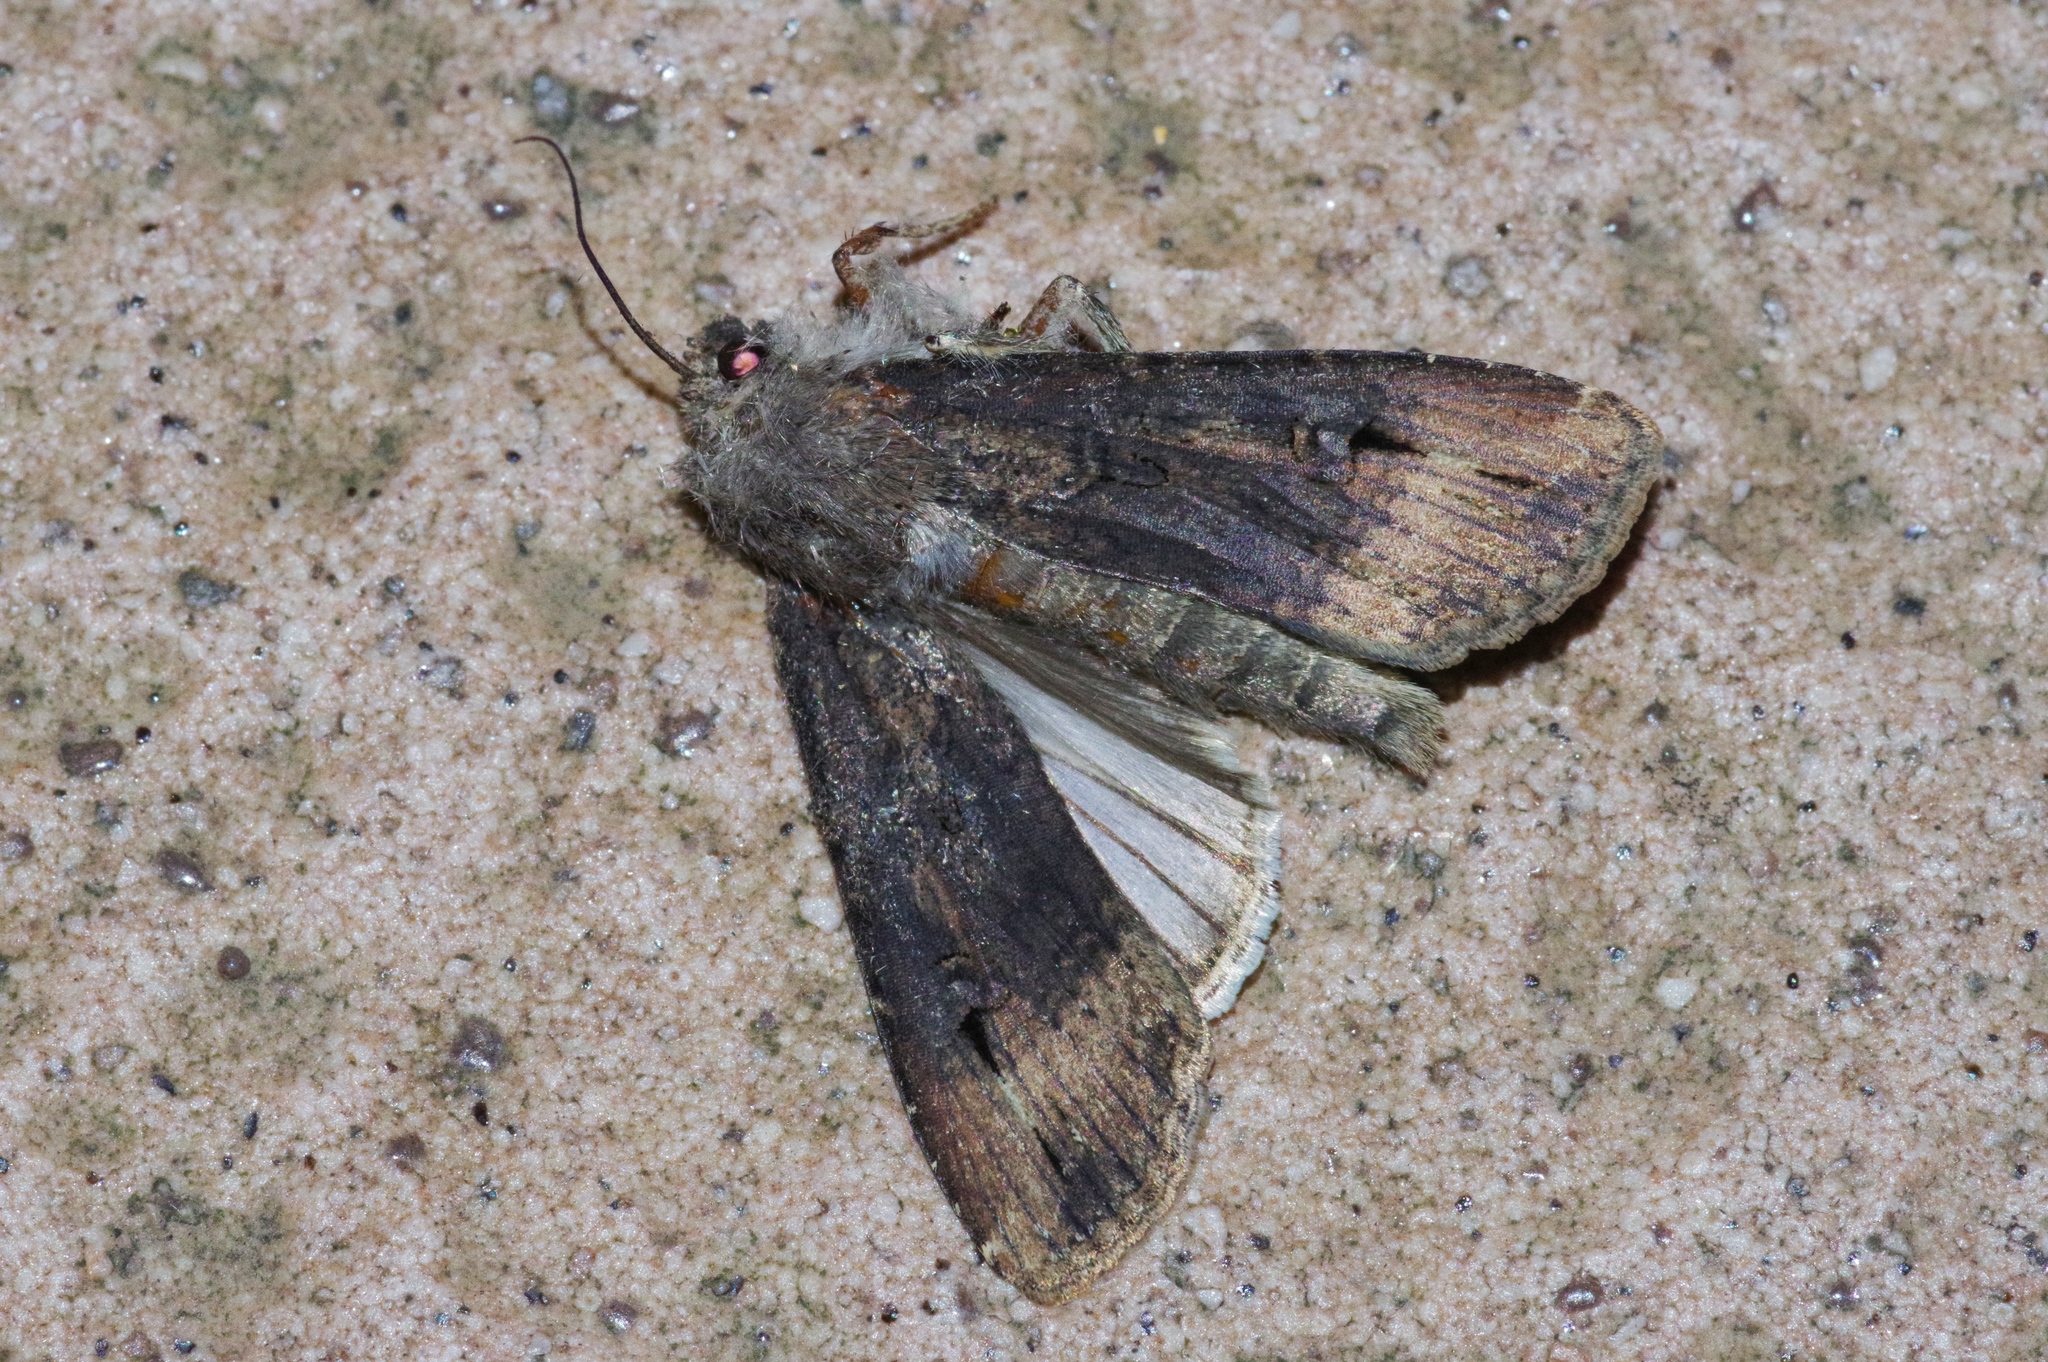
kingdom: Animalia
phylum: Arthropoda
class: Insecta
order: Lepidoptera
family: Noctuidae
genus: Agrotis
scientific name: Agrotis ipsilon
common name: Dark sword-grass
